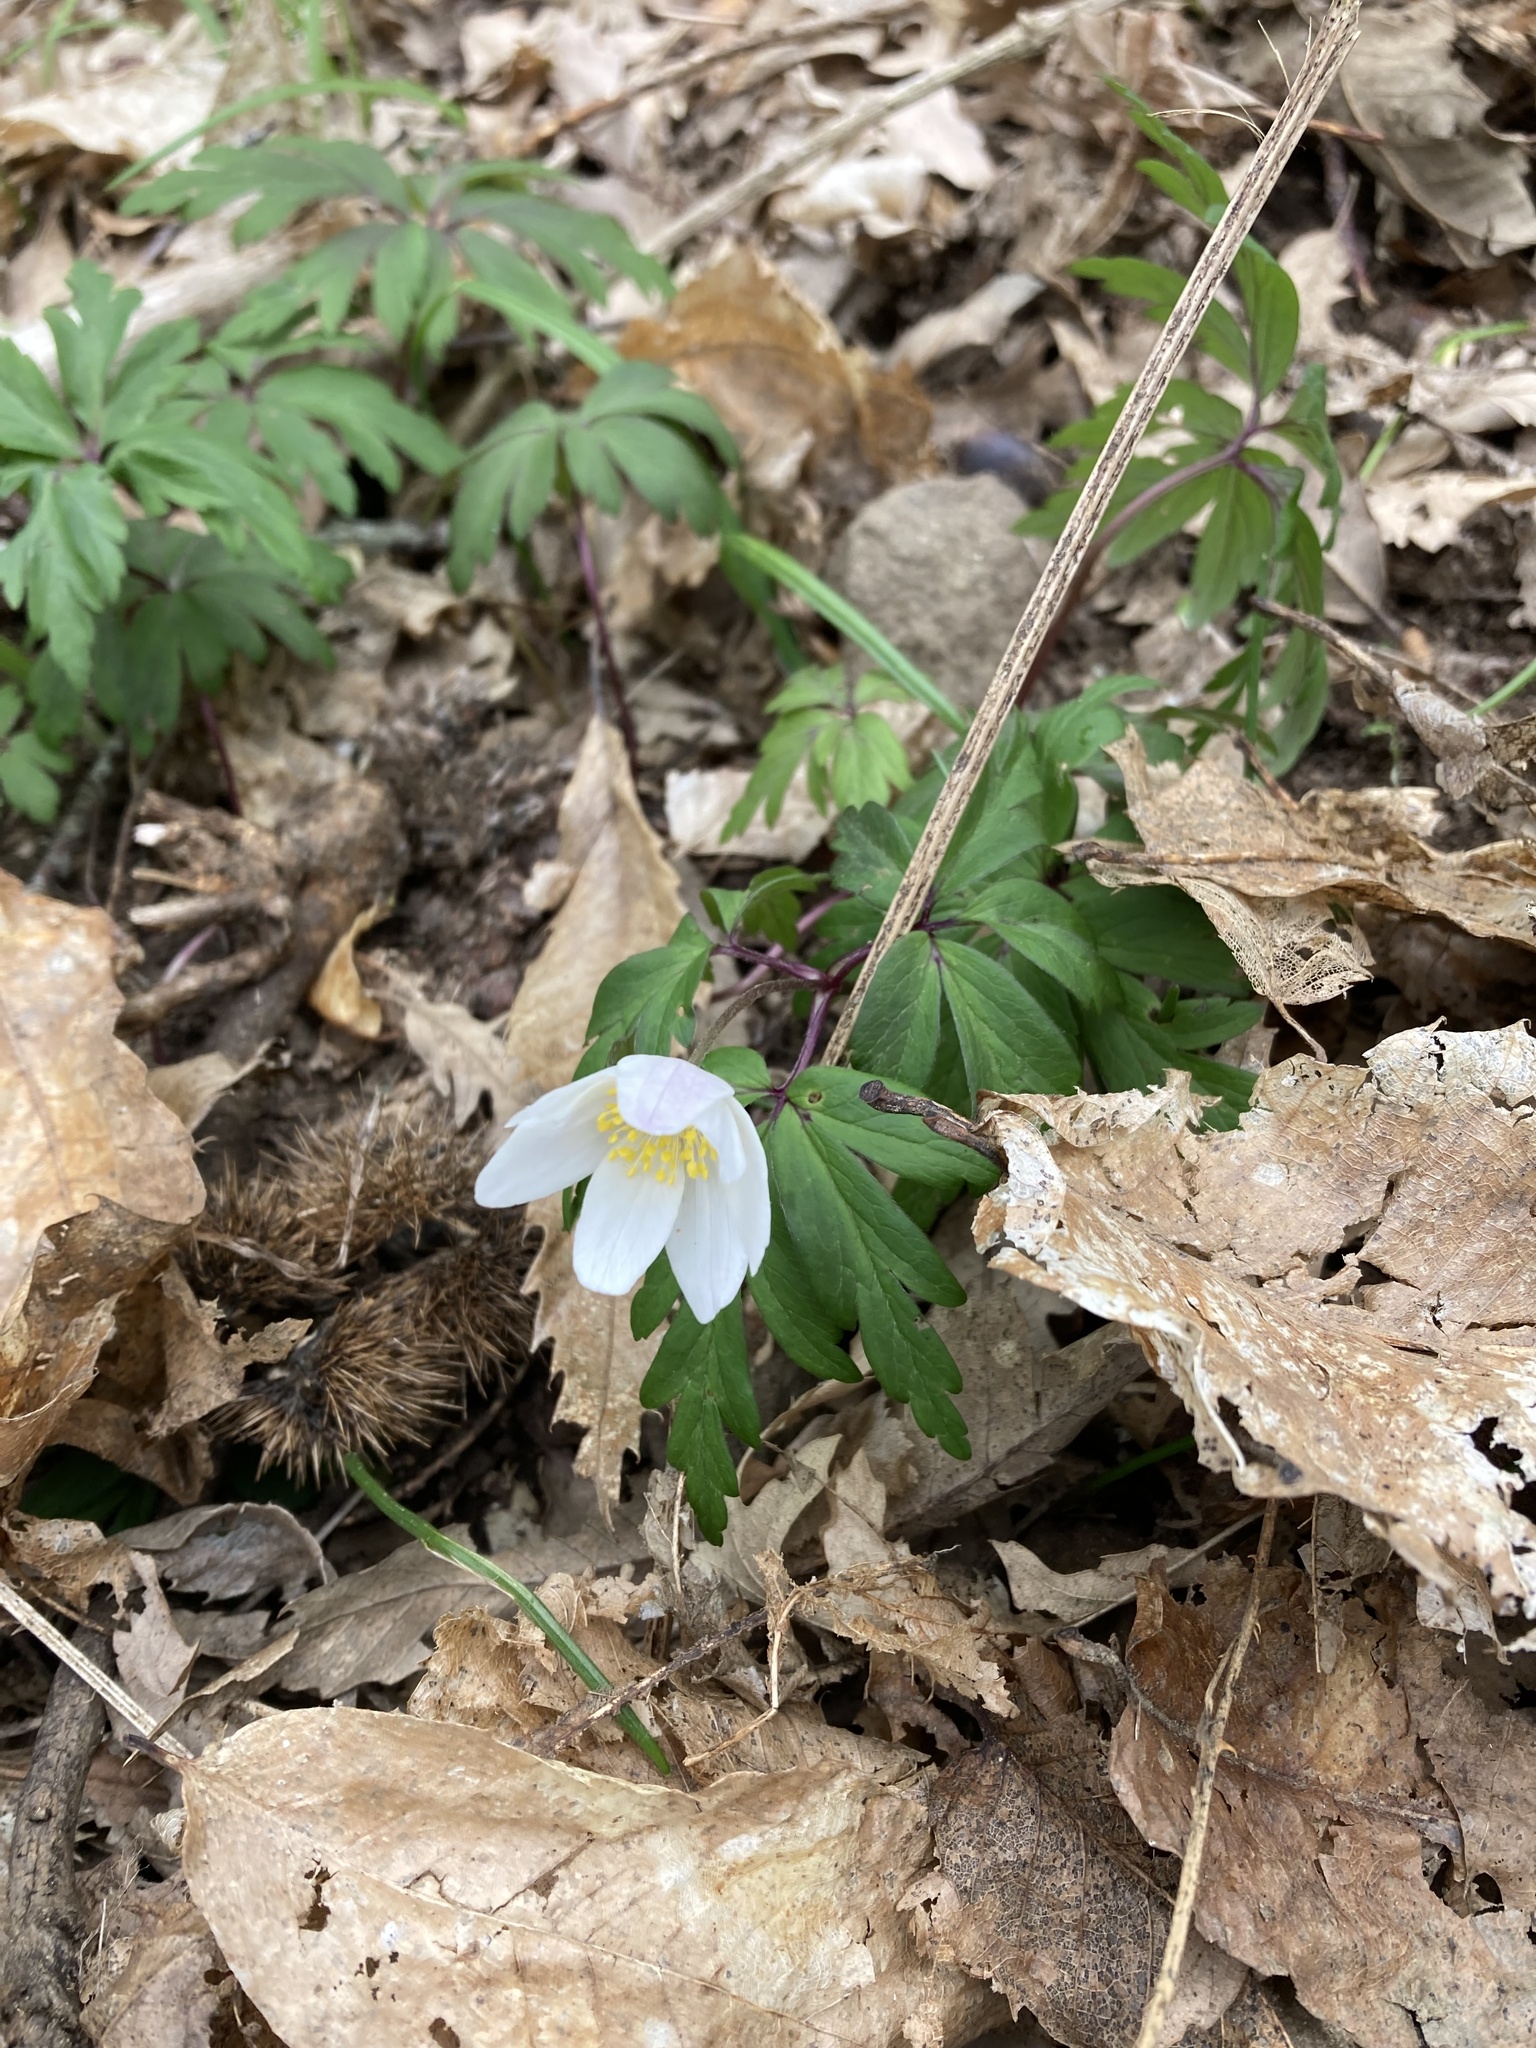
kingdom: Plantae
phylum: Tracheophyta
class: Magnoliopsida
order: Ranunculales
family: Ranunculaceae
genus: Anemone
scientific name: Anemone nemorosa
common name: Wood anemone
